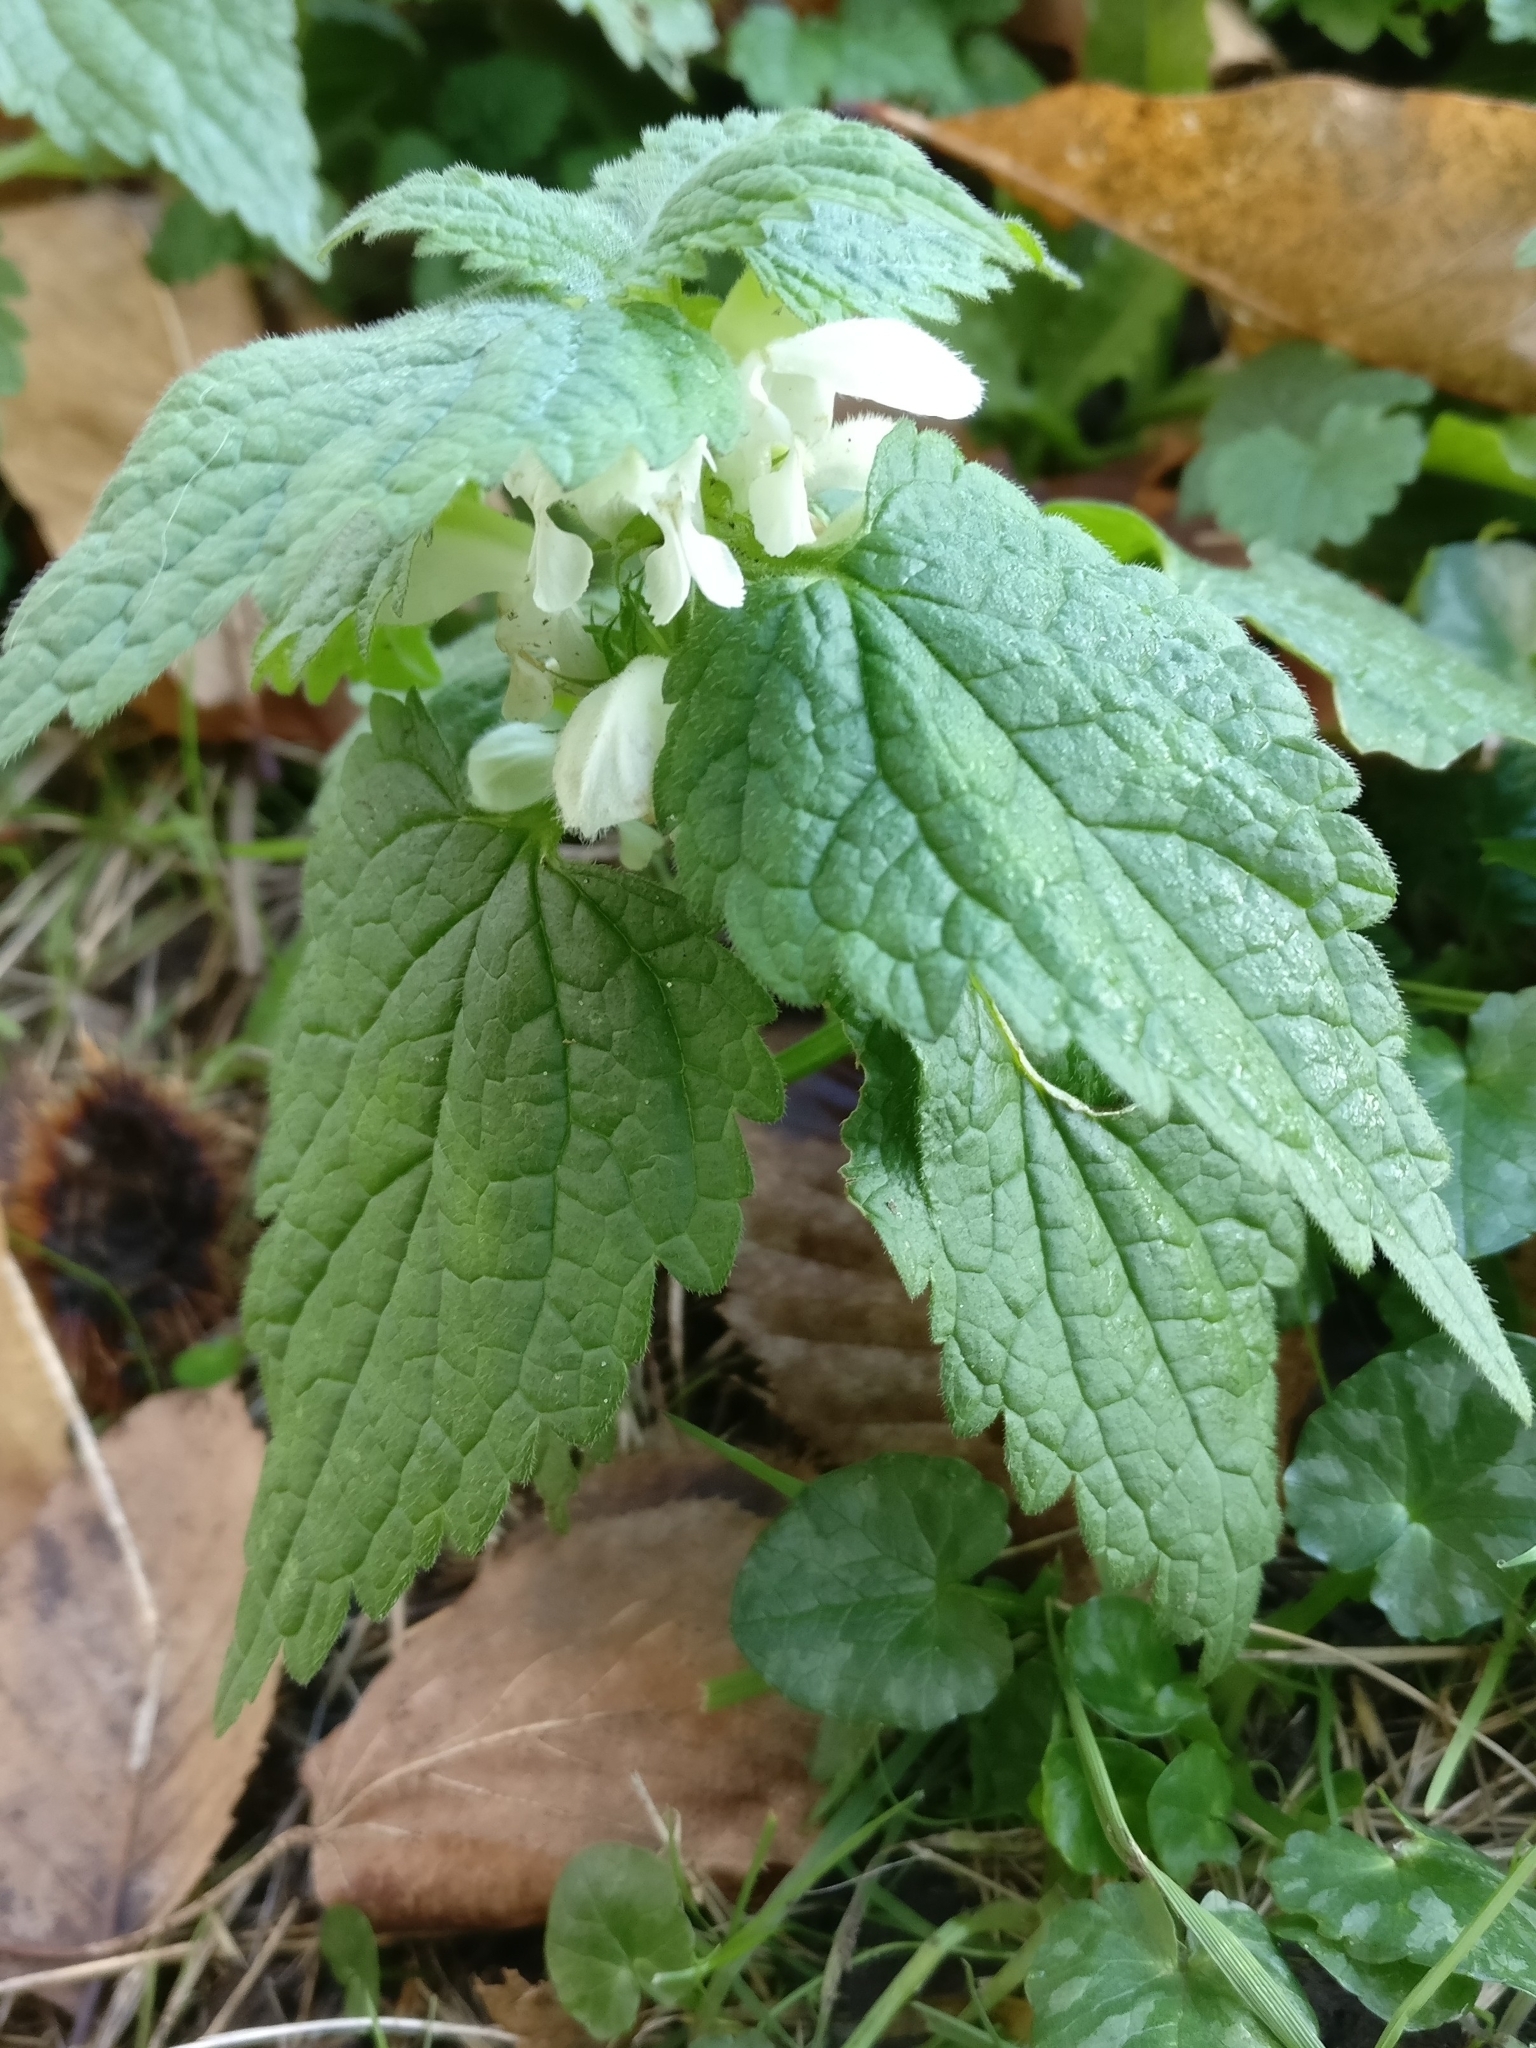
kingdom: Plantae
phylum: Tracheophyta
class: Magnoliopsida
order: Lamiales
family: Lamiaceae
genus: Lamium
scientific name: Lamium album
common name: White dead-nettle
